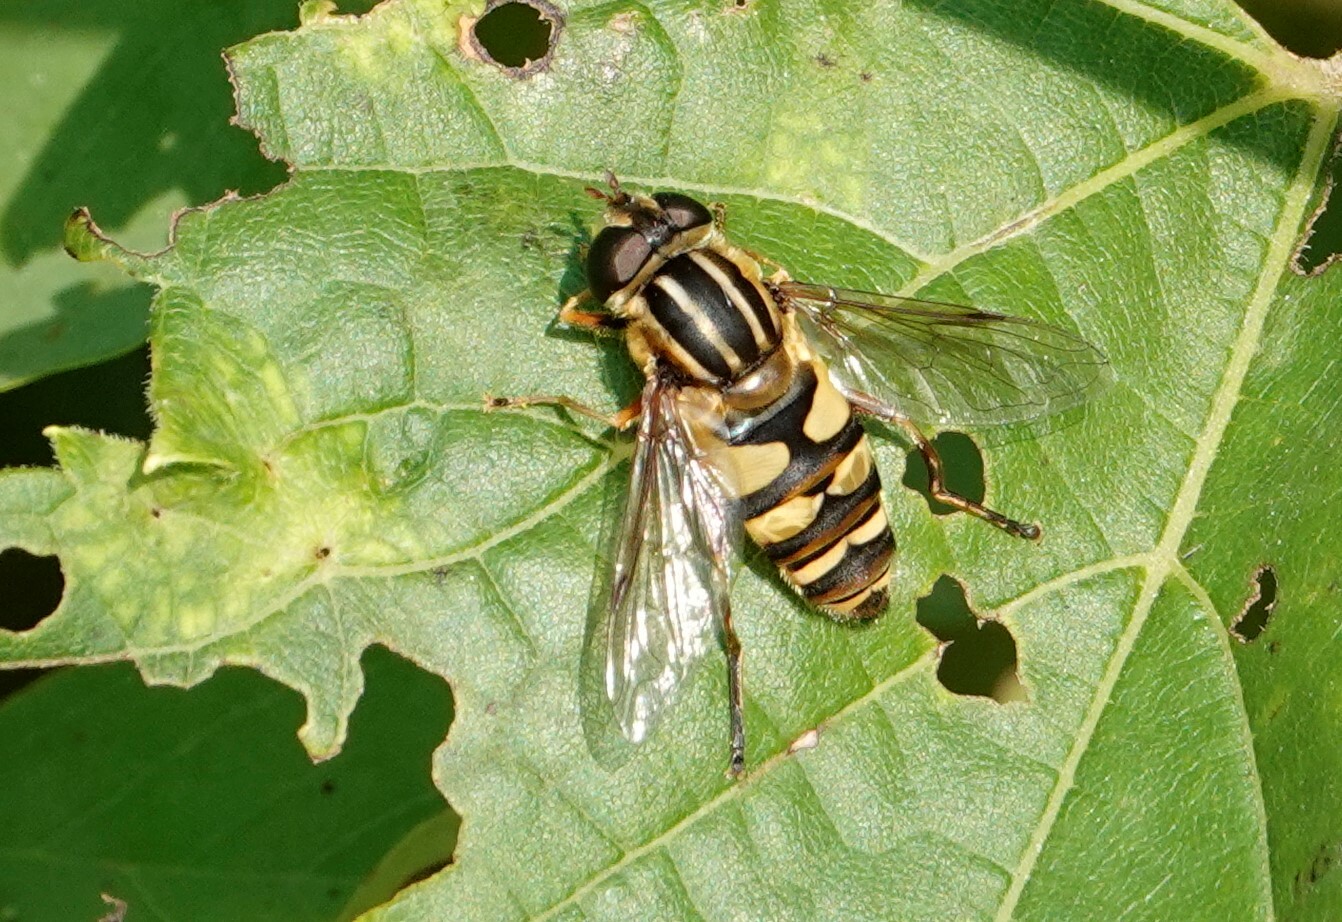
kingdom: Animalia
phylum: Arthropoda
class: Insecta
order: Diptera
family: Syrphidae
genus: Helophilus
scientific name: Helophilus fasciatus
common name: Narrow-headed marsh fly
